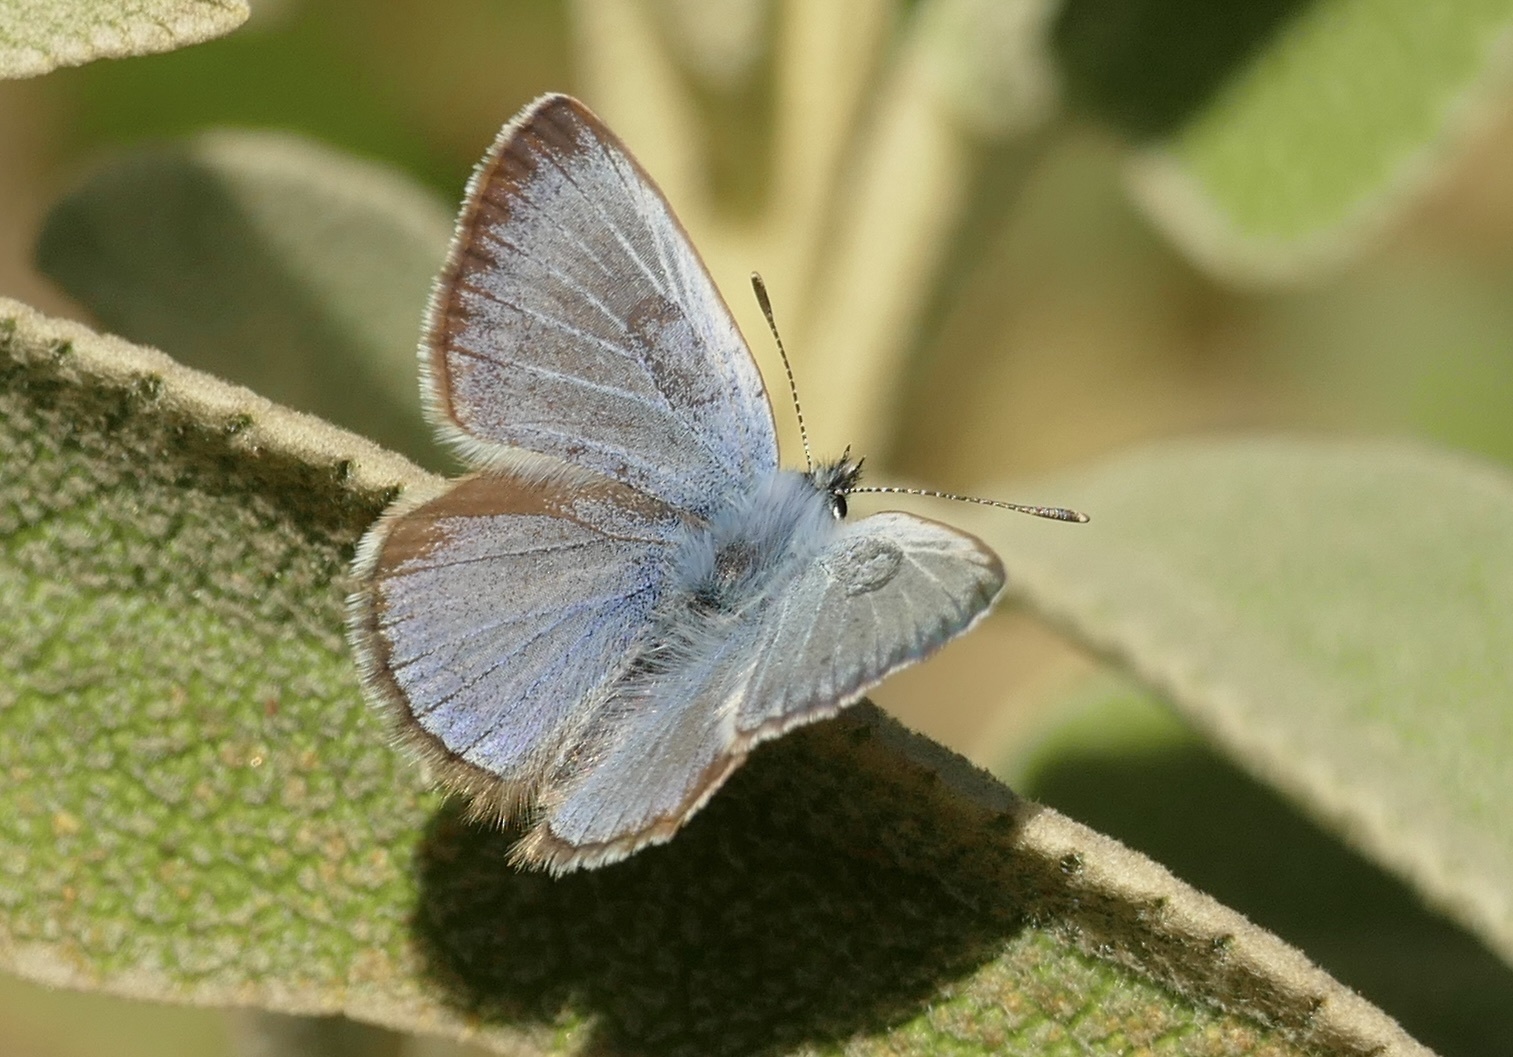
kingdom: Animalia
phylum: Arthropoda
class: Insecta
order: Lepidoptera
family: Lycaenidae
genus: Glaucopsyche
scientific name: Glaucopsyche melanops
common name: Black-eyed blue
